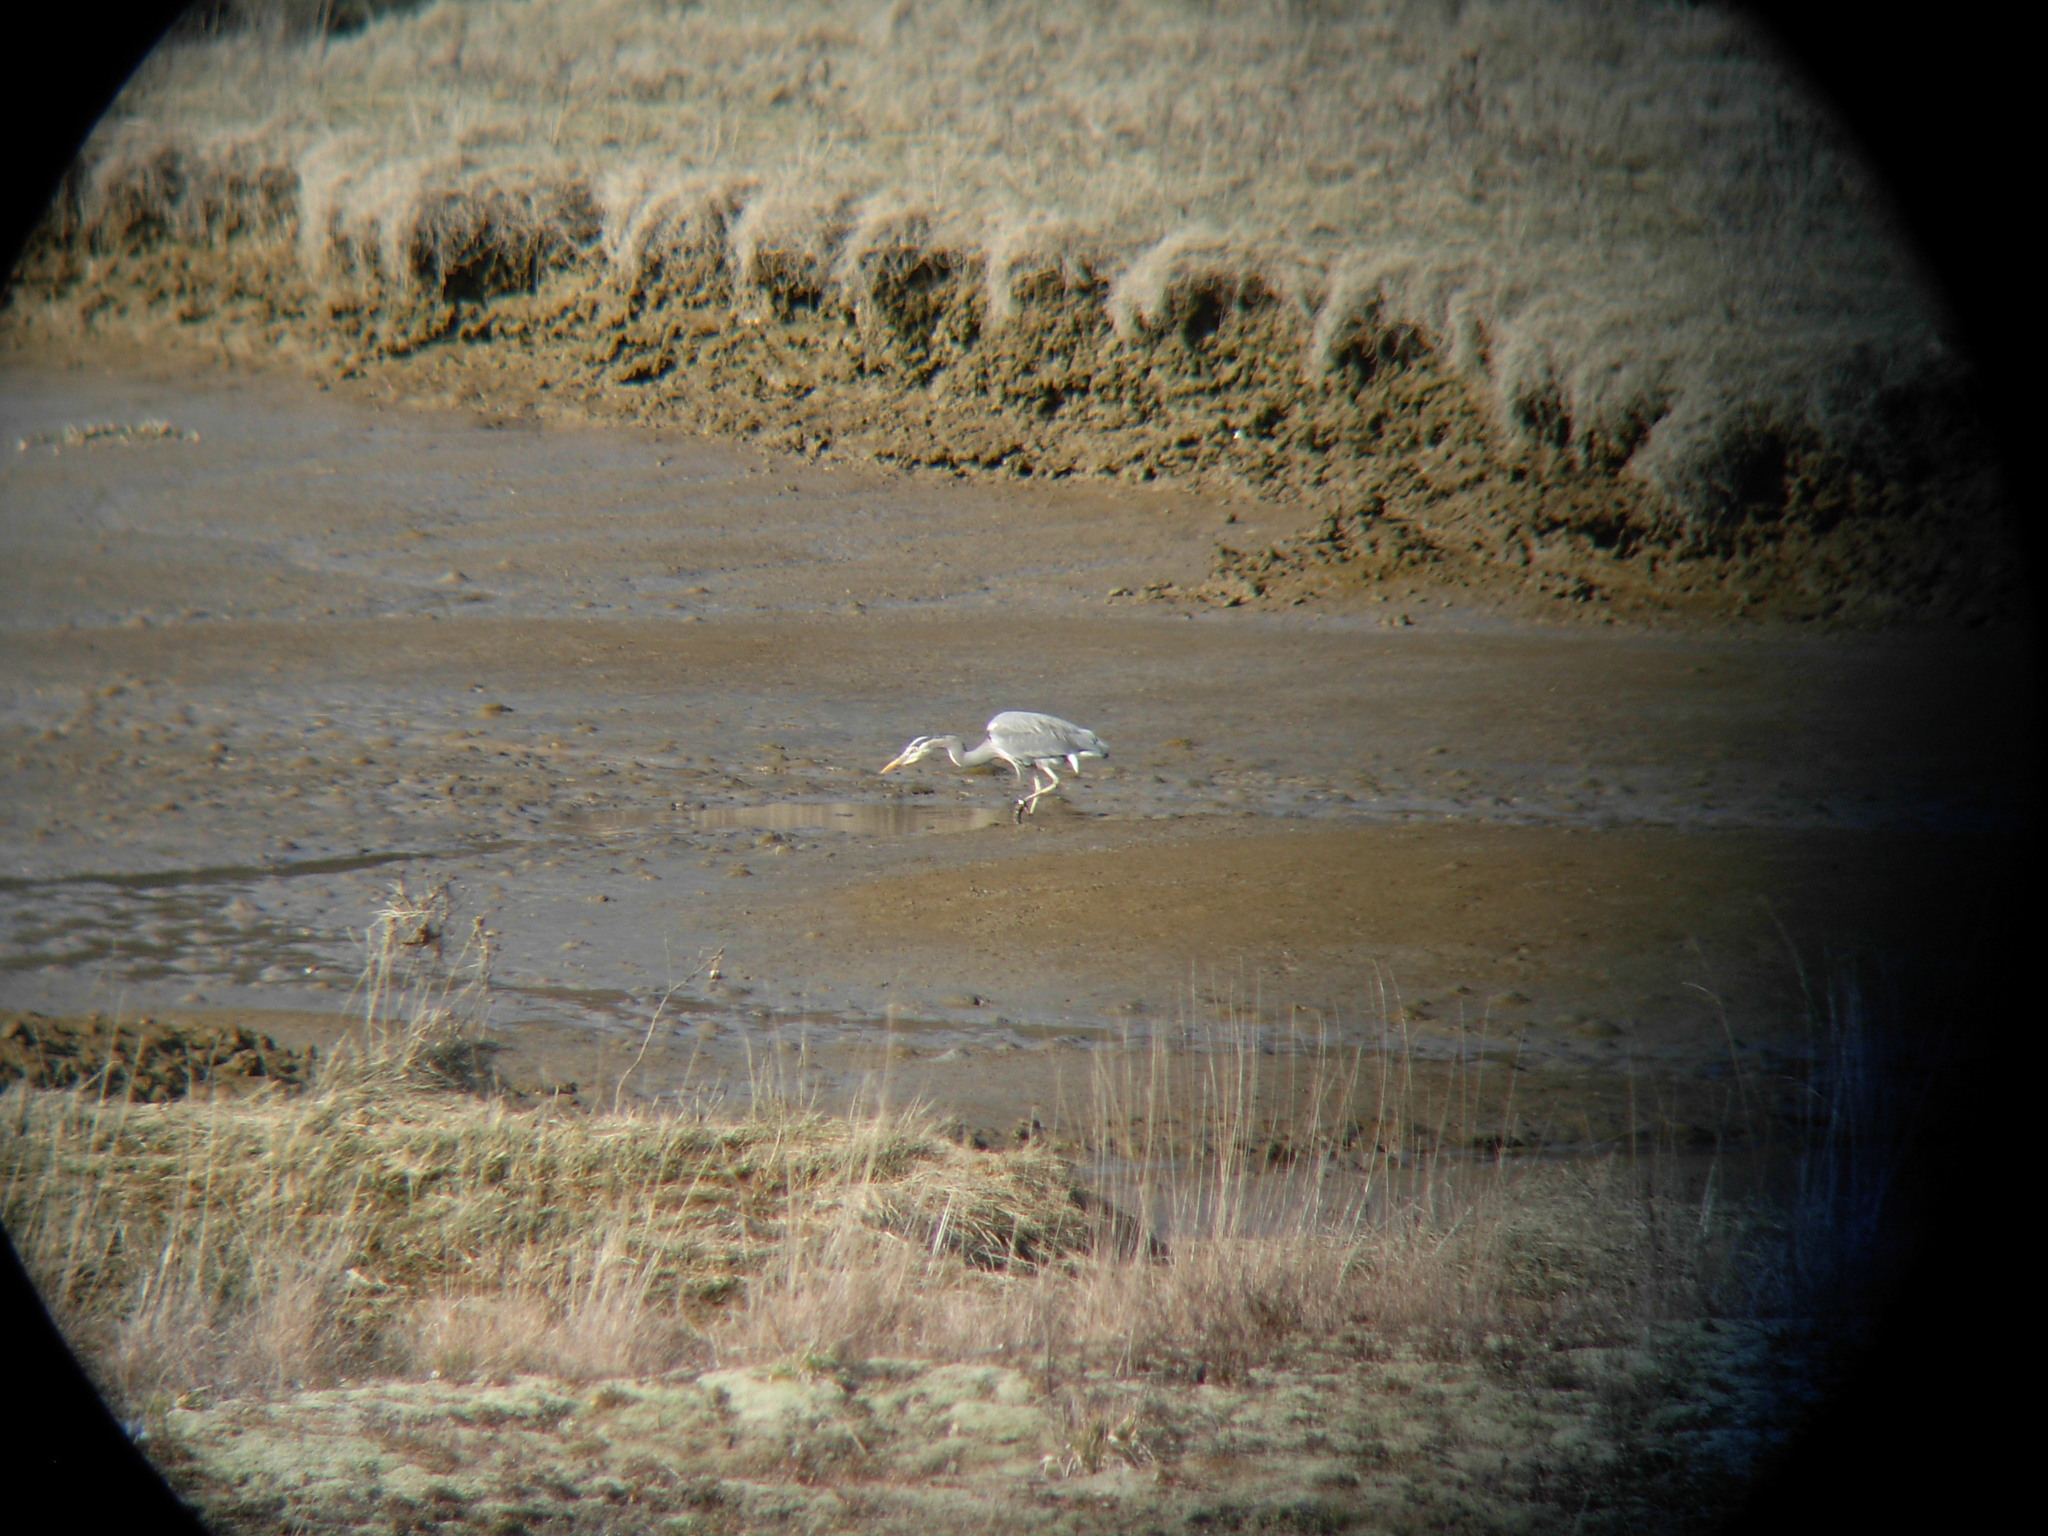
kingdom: Animalia
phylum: Chordata
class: Aves
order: Pelecaniformes
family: Ardeidae
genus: Ardea
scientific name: Ardea herodias
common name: Great blue heron
